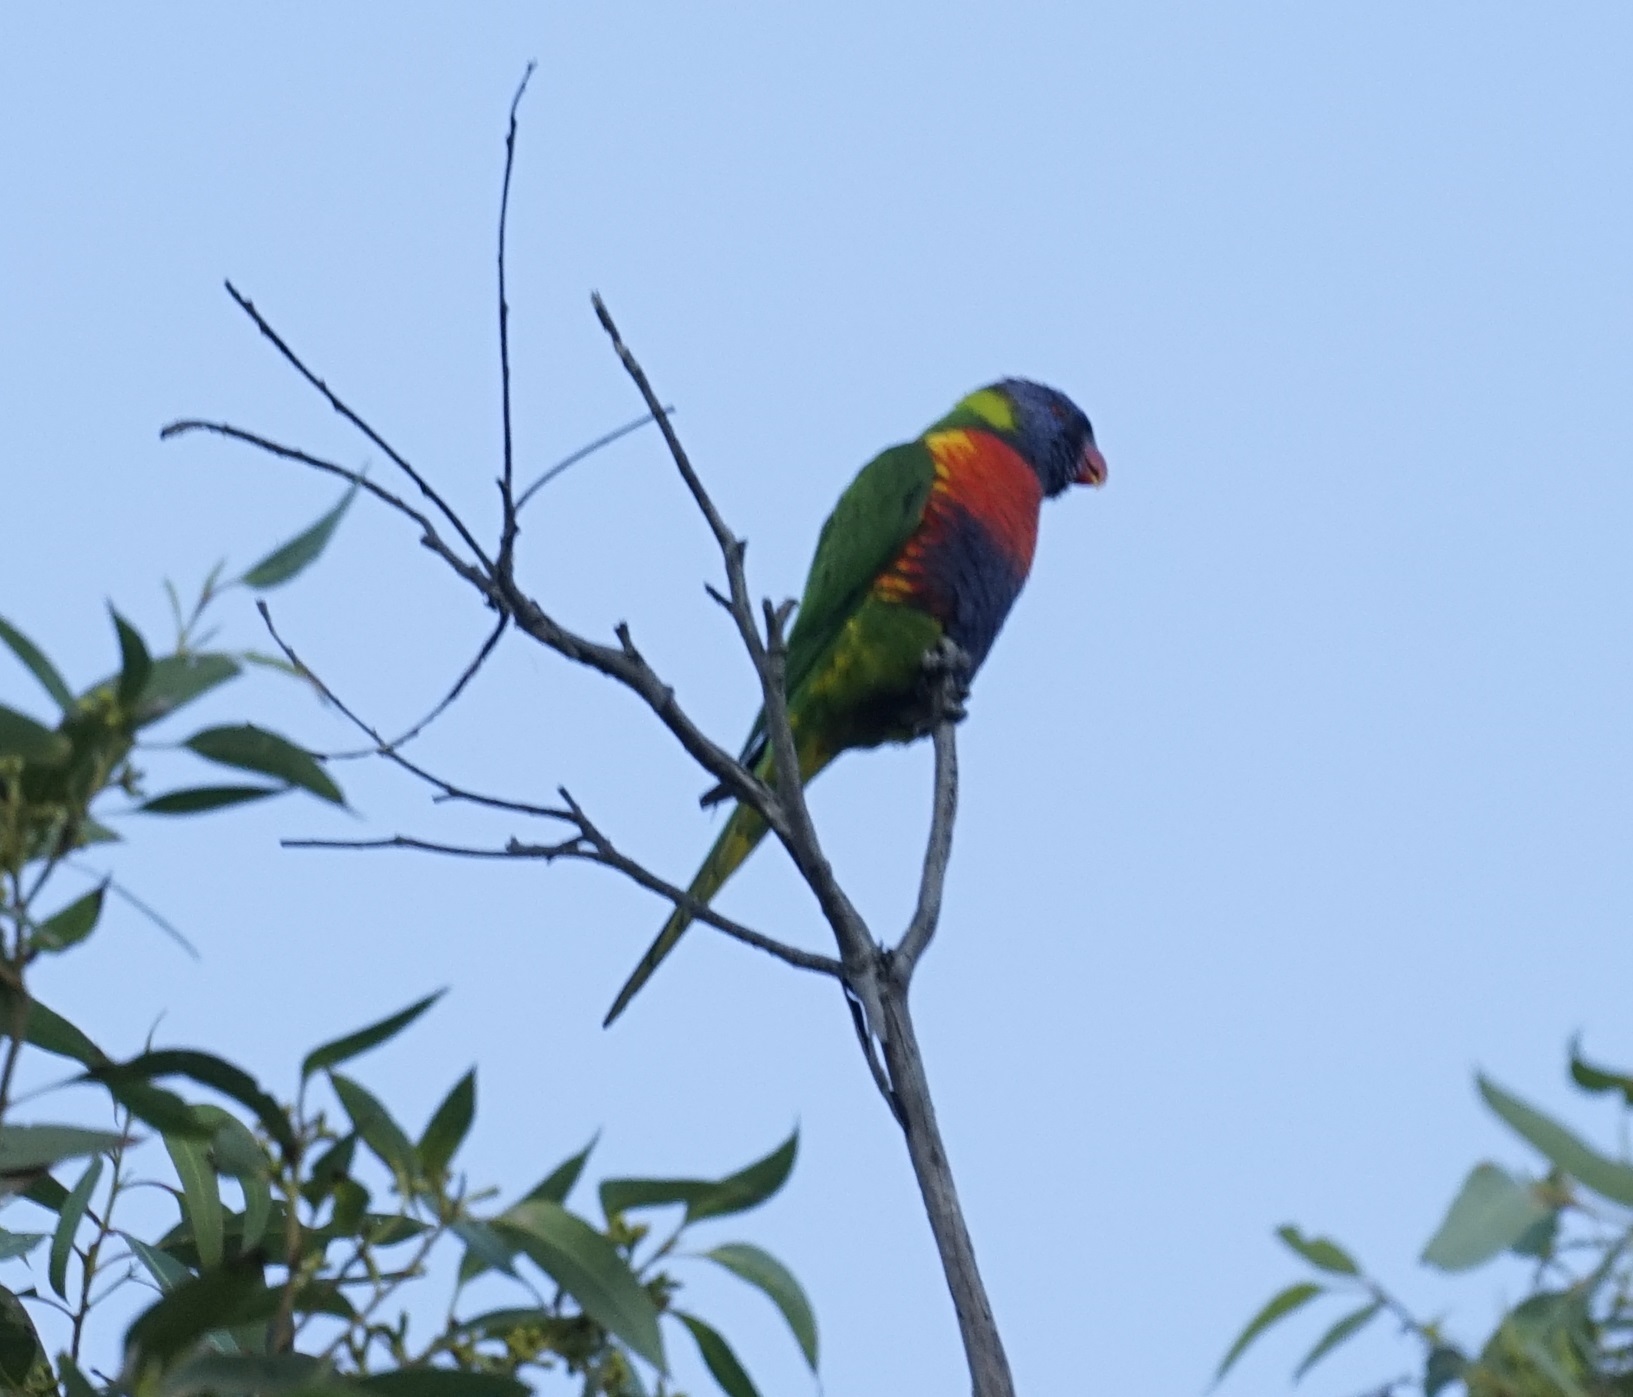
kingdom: Animalia
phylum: Chordata
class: Aves
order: Psittaciformes
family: Psittacidae
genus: Trichoglossus
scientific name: Trichoglossus haematodus
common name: Coconut lorikeet
